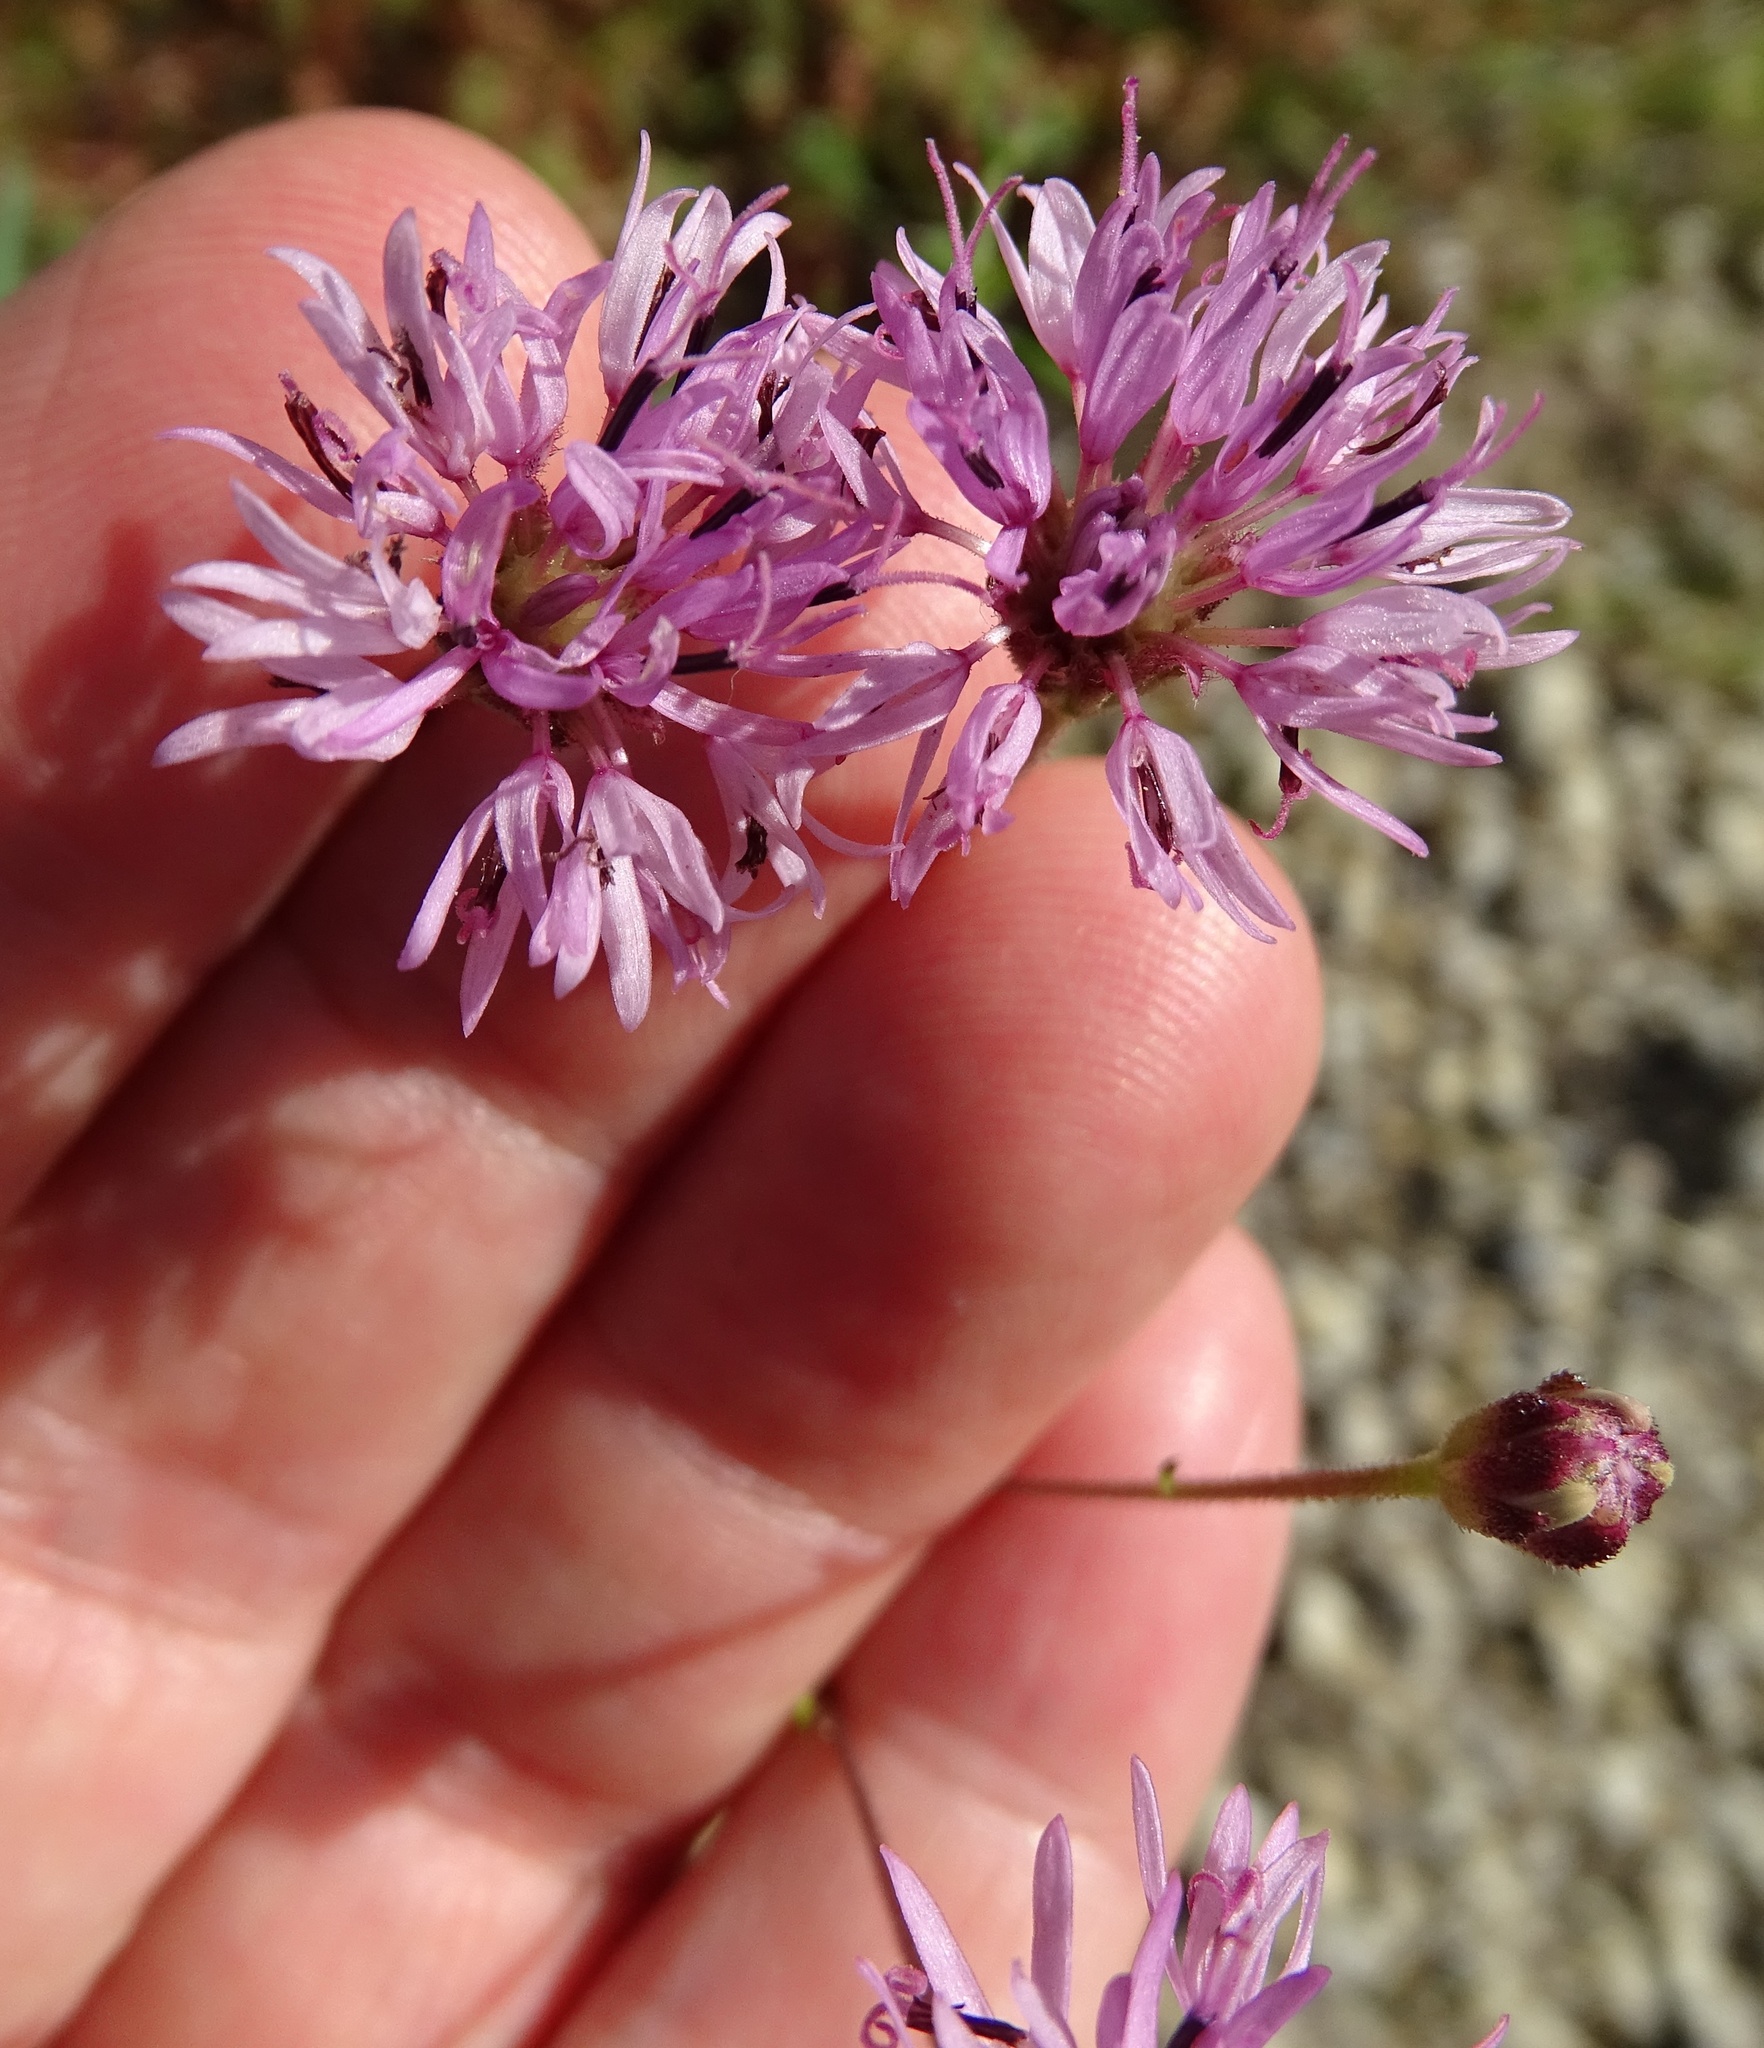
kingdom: Plantae
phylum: Tracheophyta
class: Magnoliopsida
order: Asterales
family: Asteraceae
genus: Palafoxia
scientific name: Palafoxia rosea
